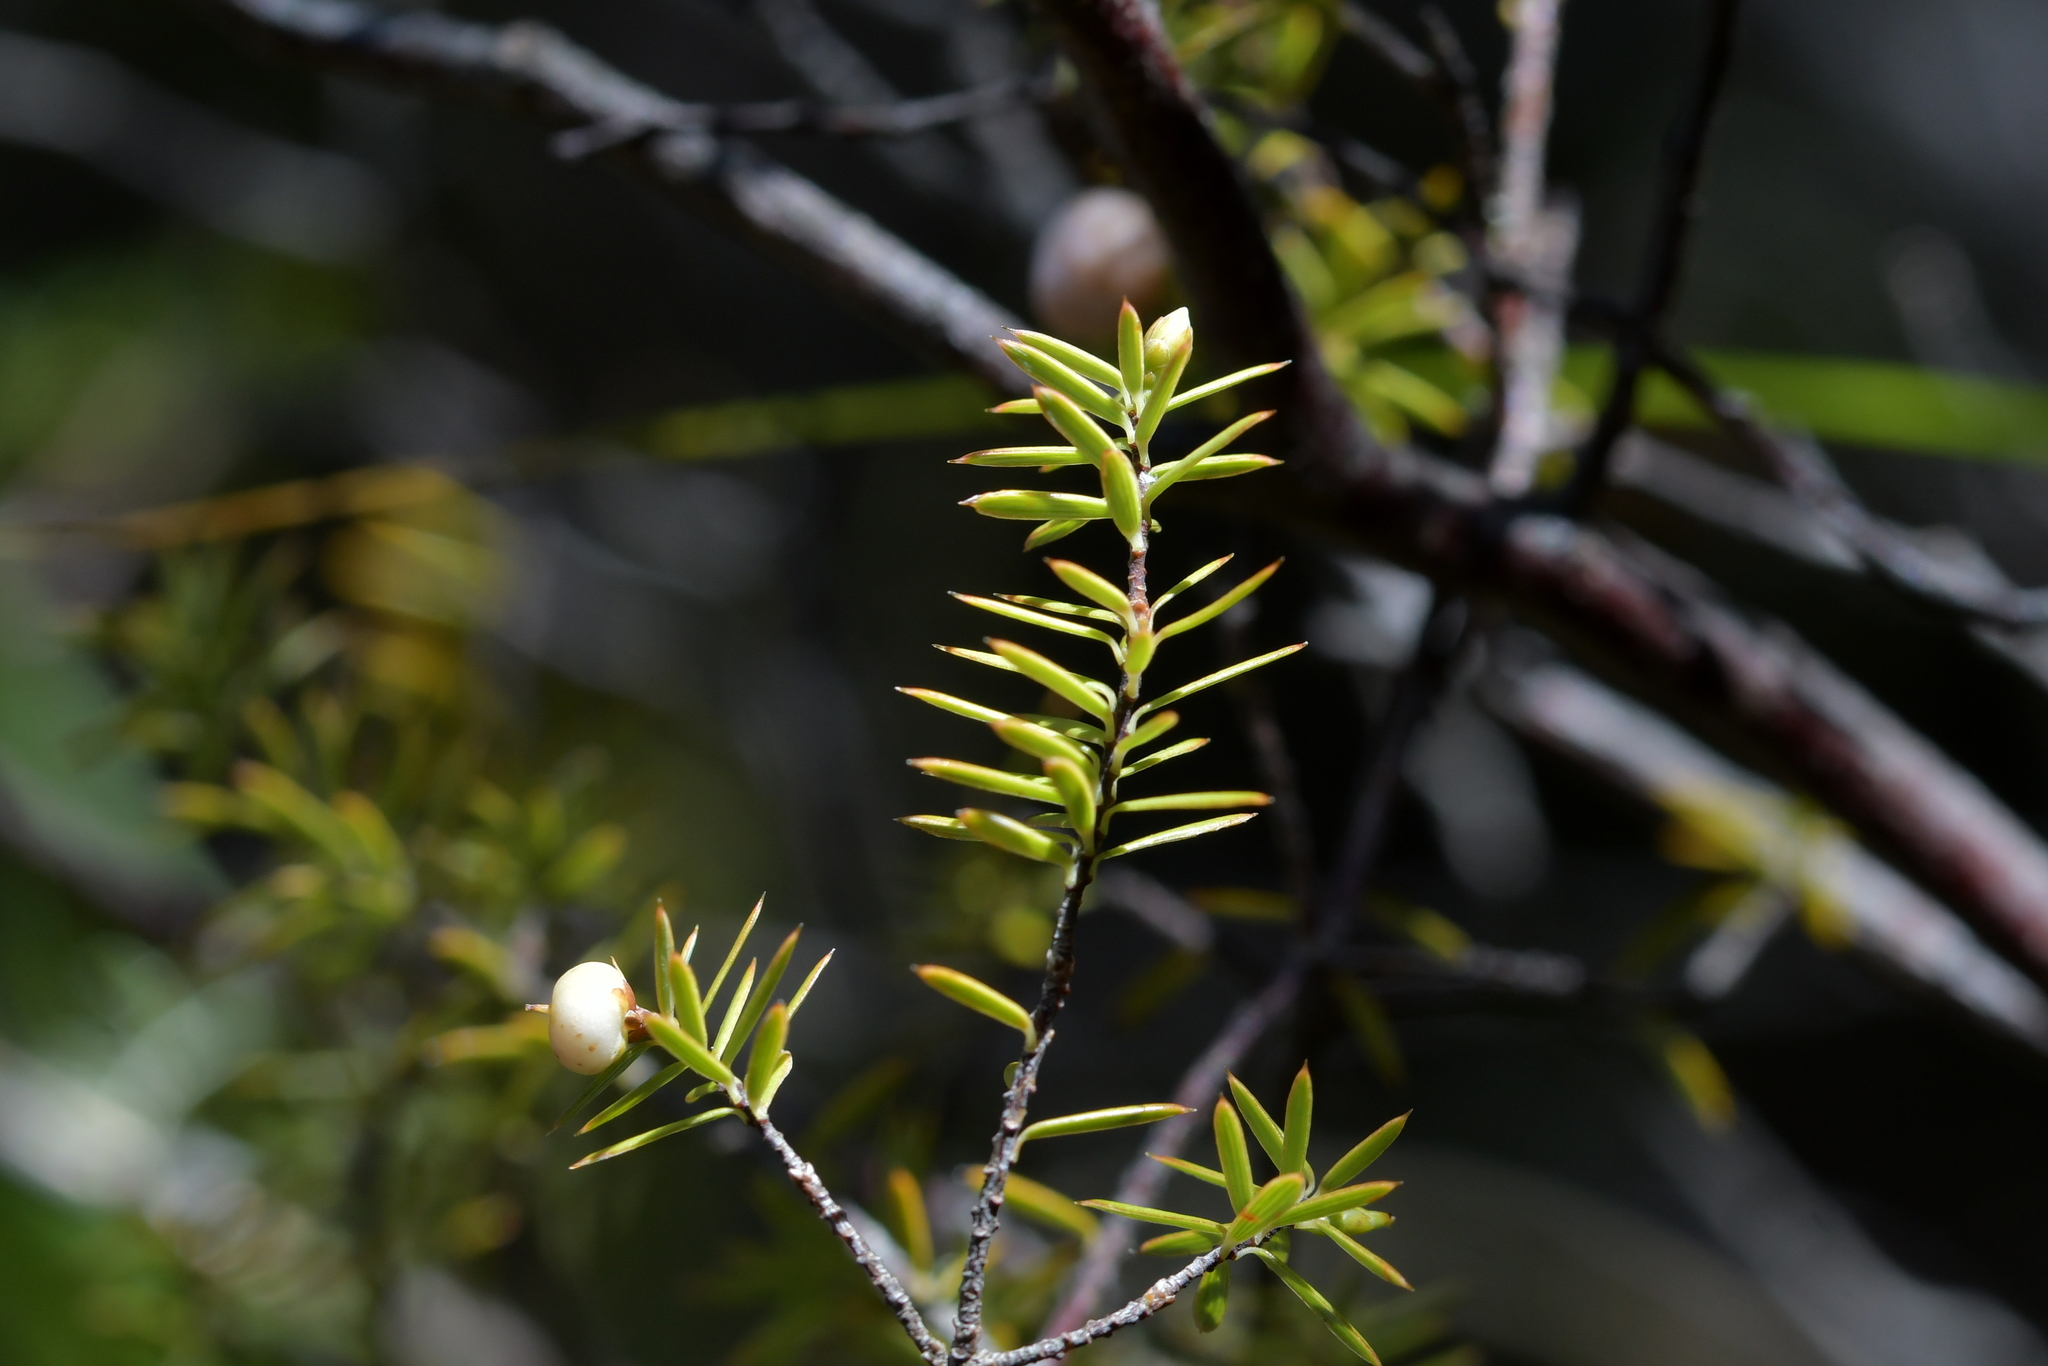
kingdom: Plantae
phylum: Tracheophyta
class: Magnoliopsida
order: Ericales
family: Ericaceae
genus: Leptecophylla
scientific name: Leptecophylla juniperina
